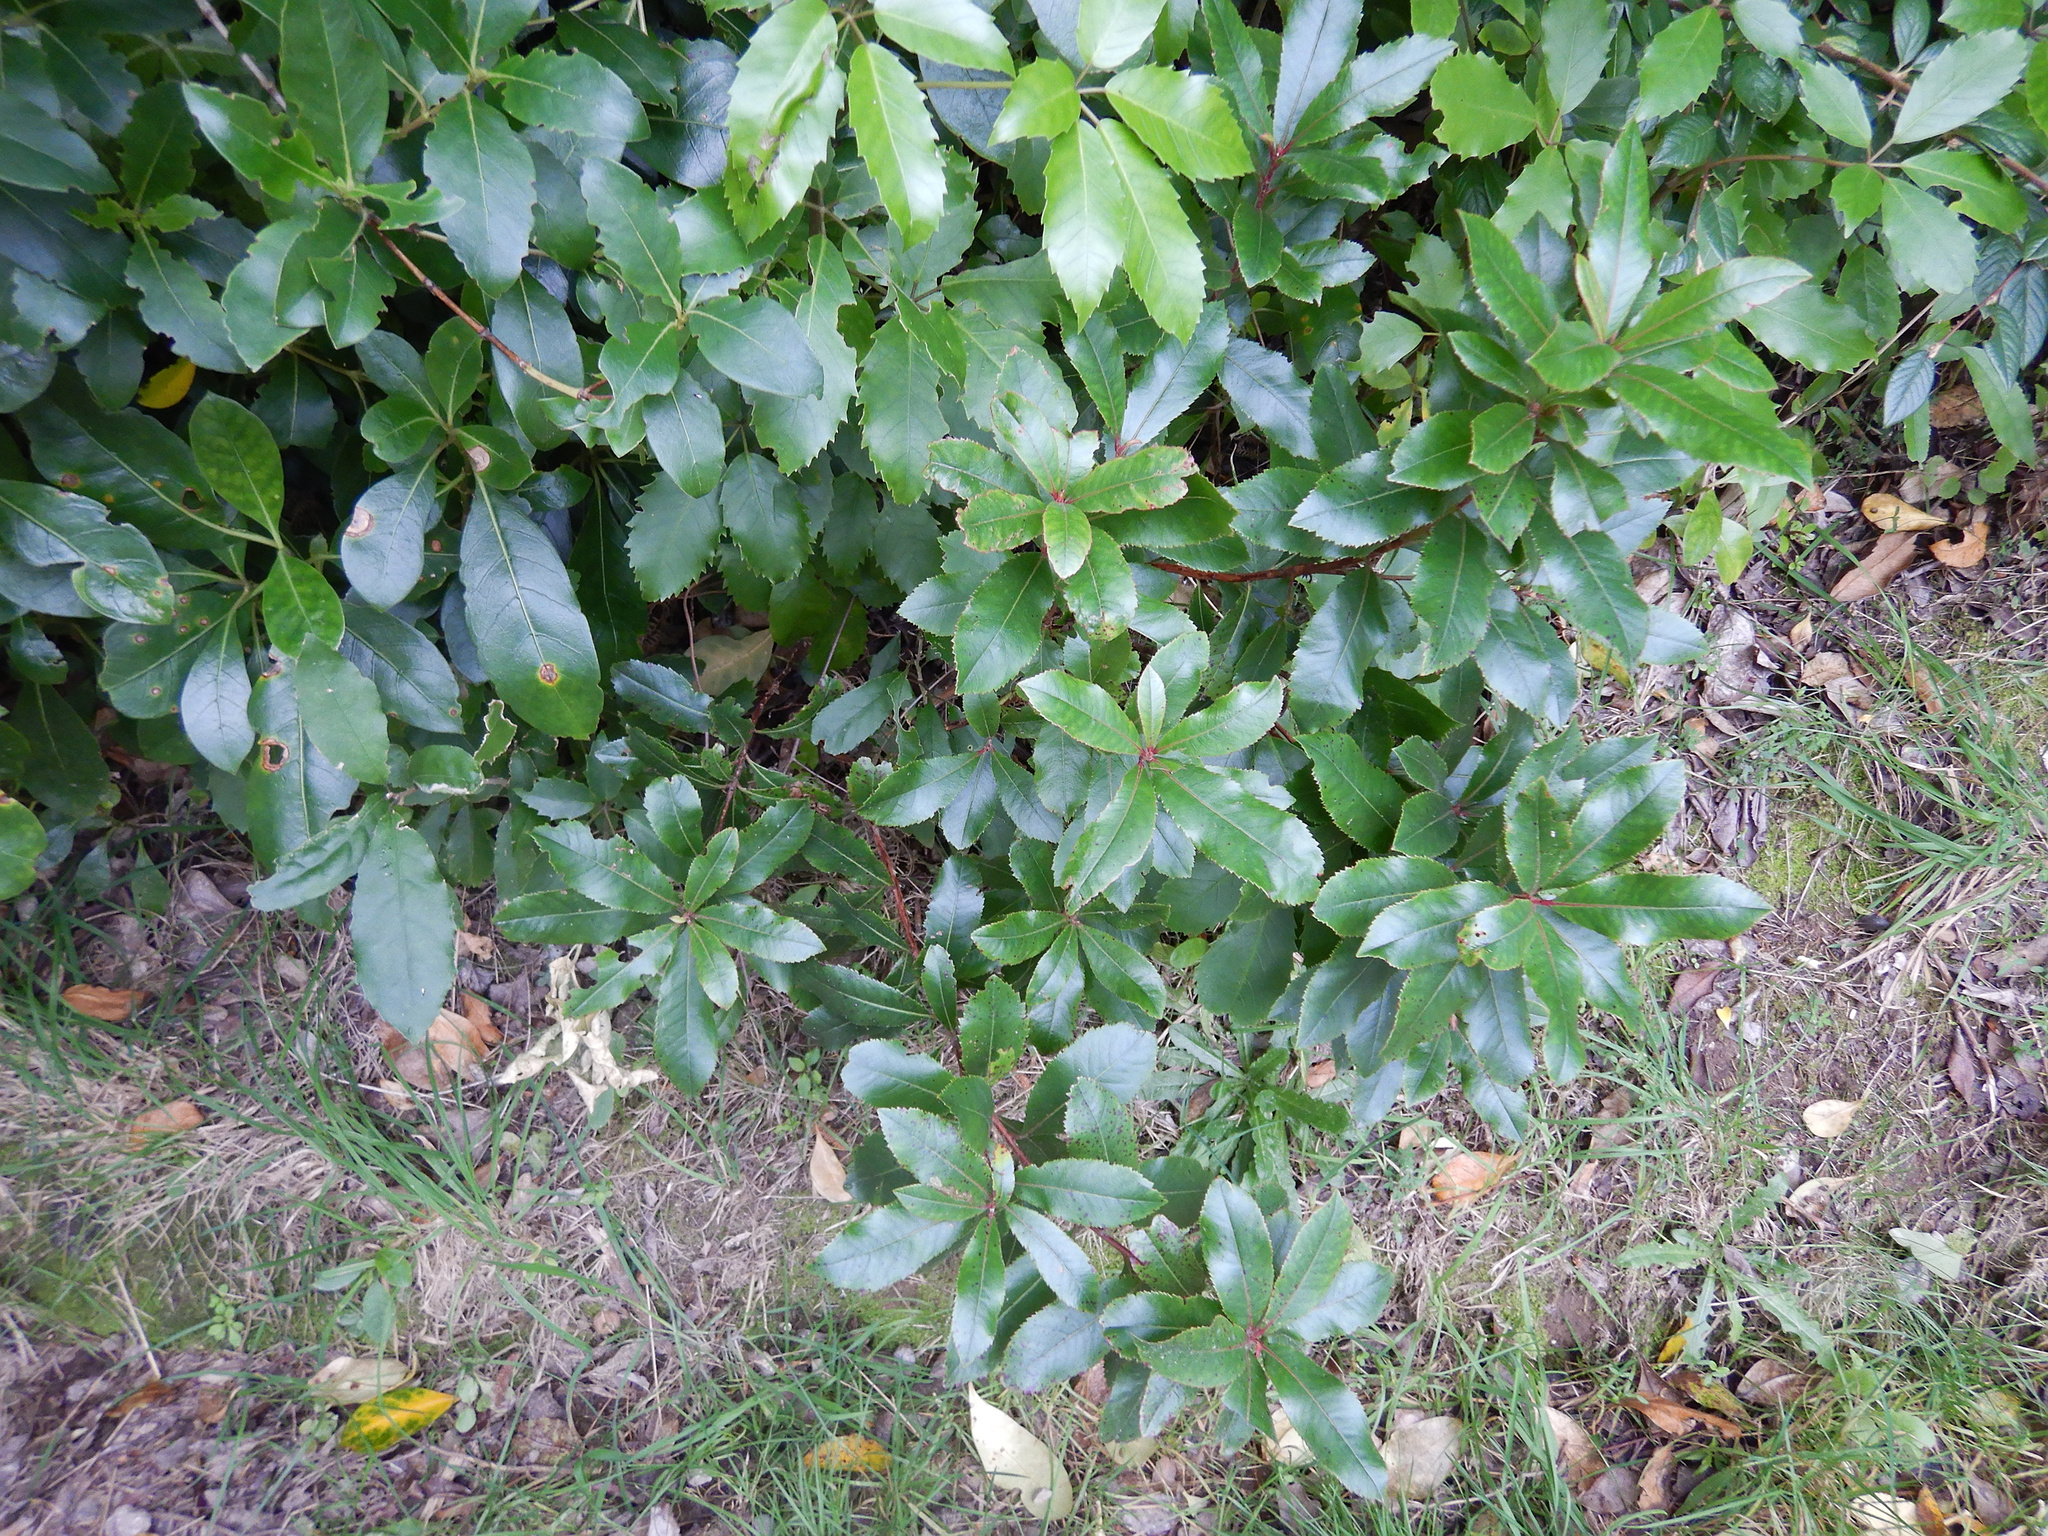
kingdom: Plantae
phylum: Tracheophyta
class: Magnoliopsida
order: Ericales
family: Ericaceae
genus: Arbutus
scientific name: Arbutus unedo
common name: Strawberry-tree
